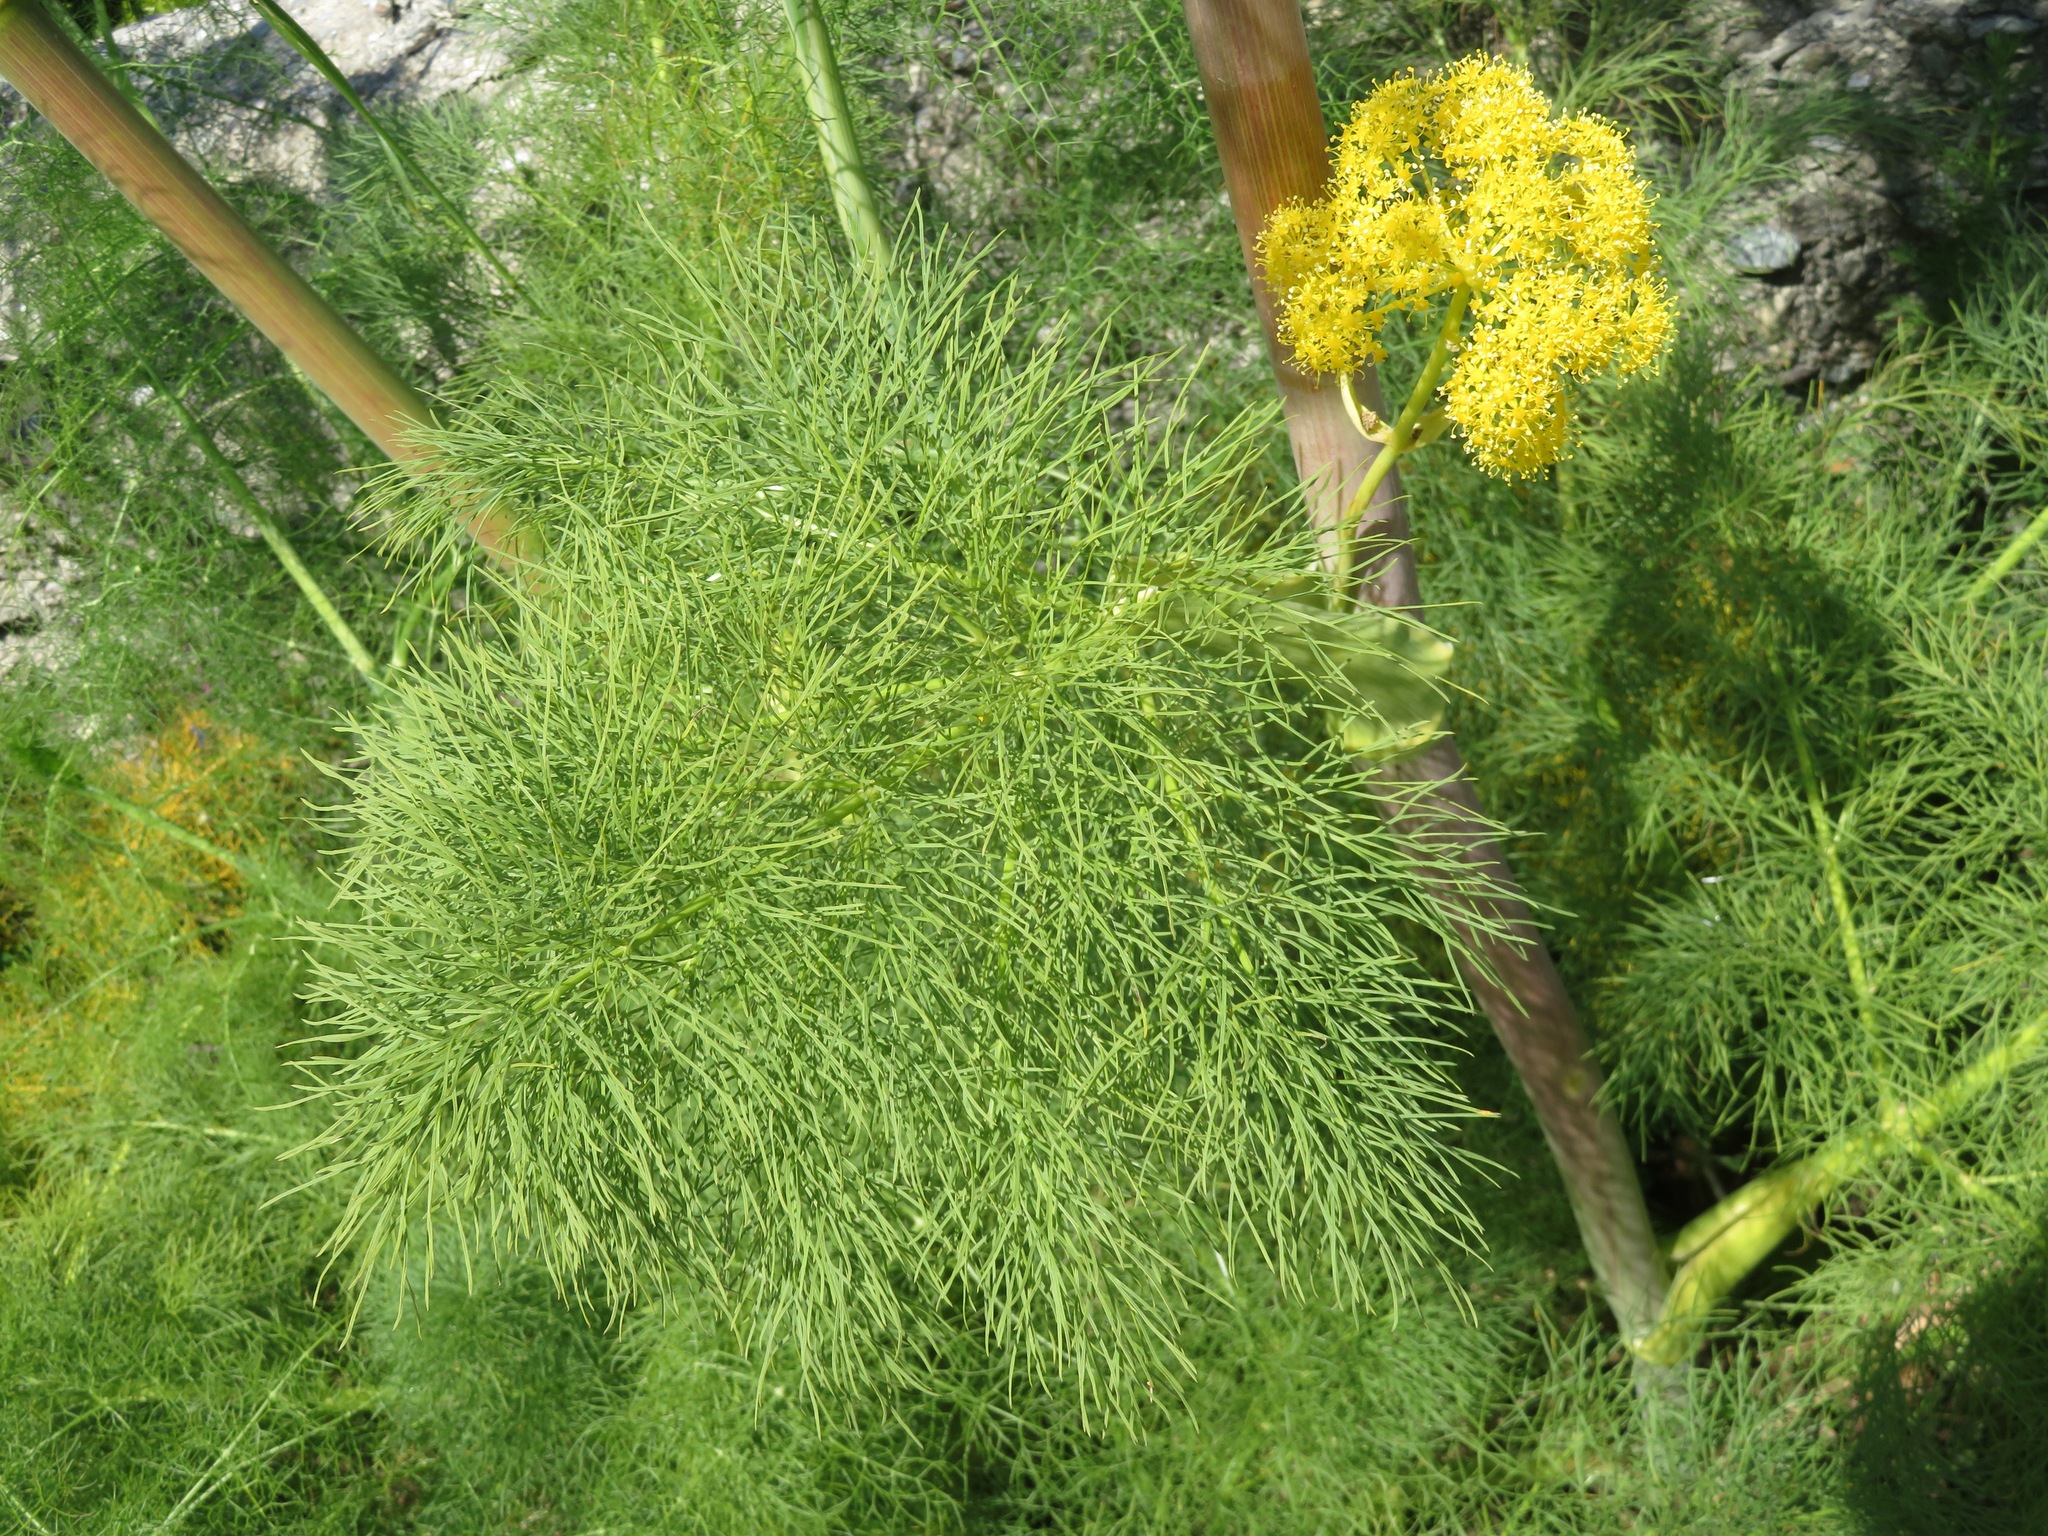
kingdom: Plantae
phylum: Tracheophyta
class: Magnoliopsida
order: Apiales
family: Apiaceae
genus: Ferula
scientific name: Ferula communis
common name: Giant fennel
